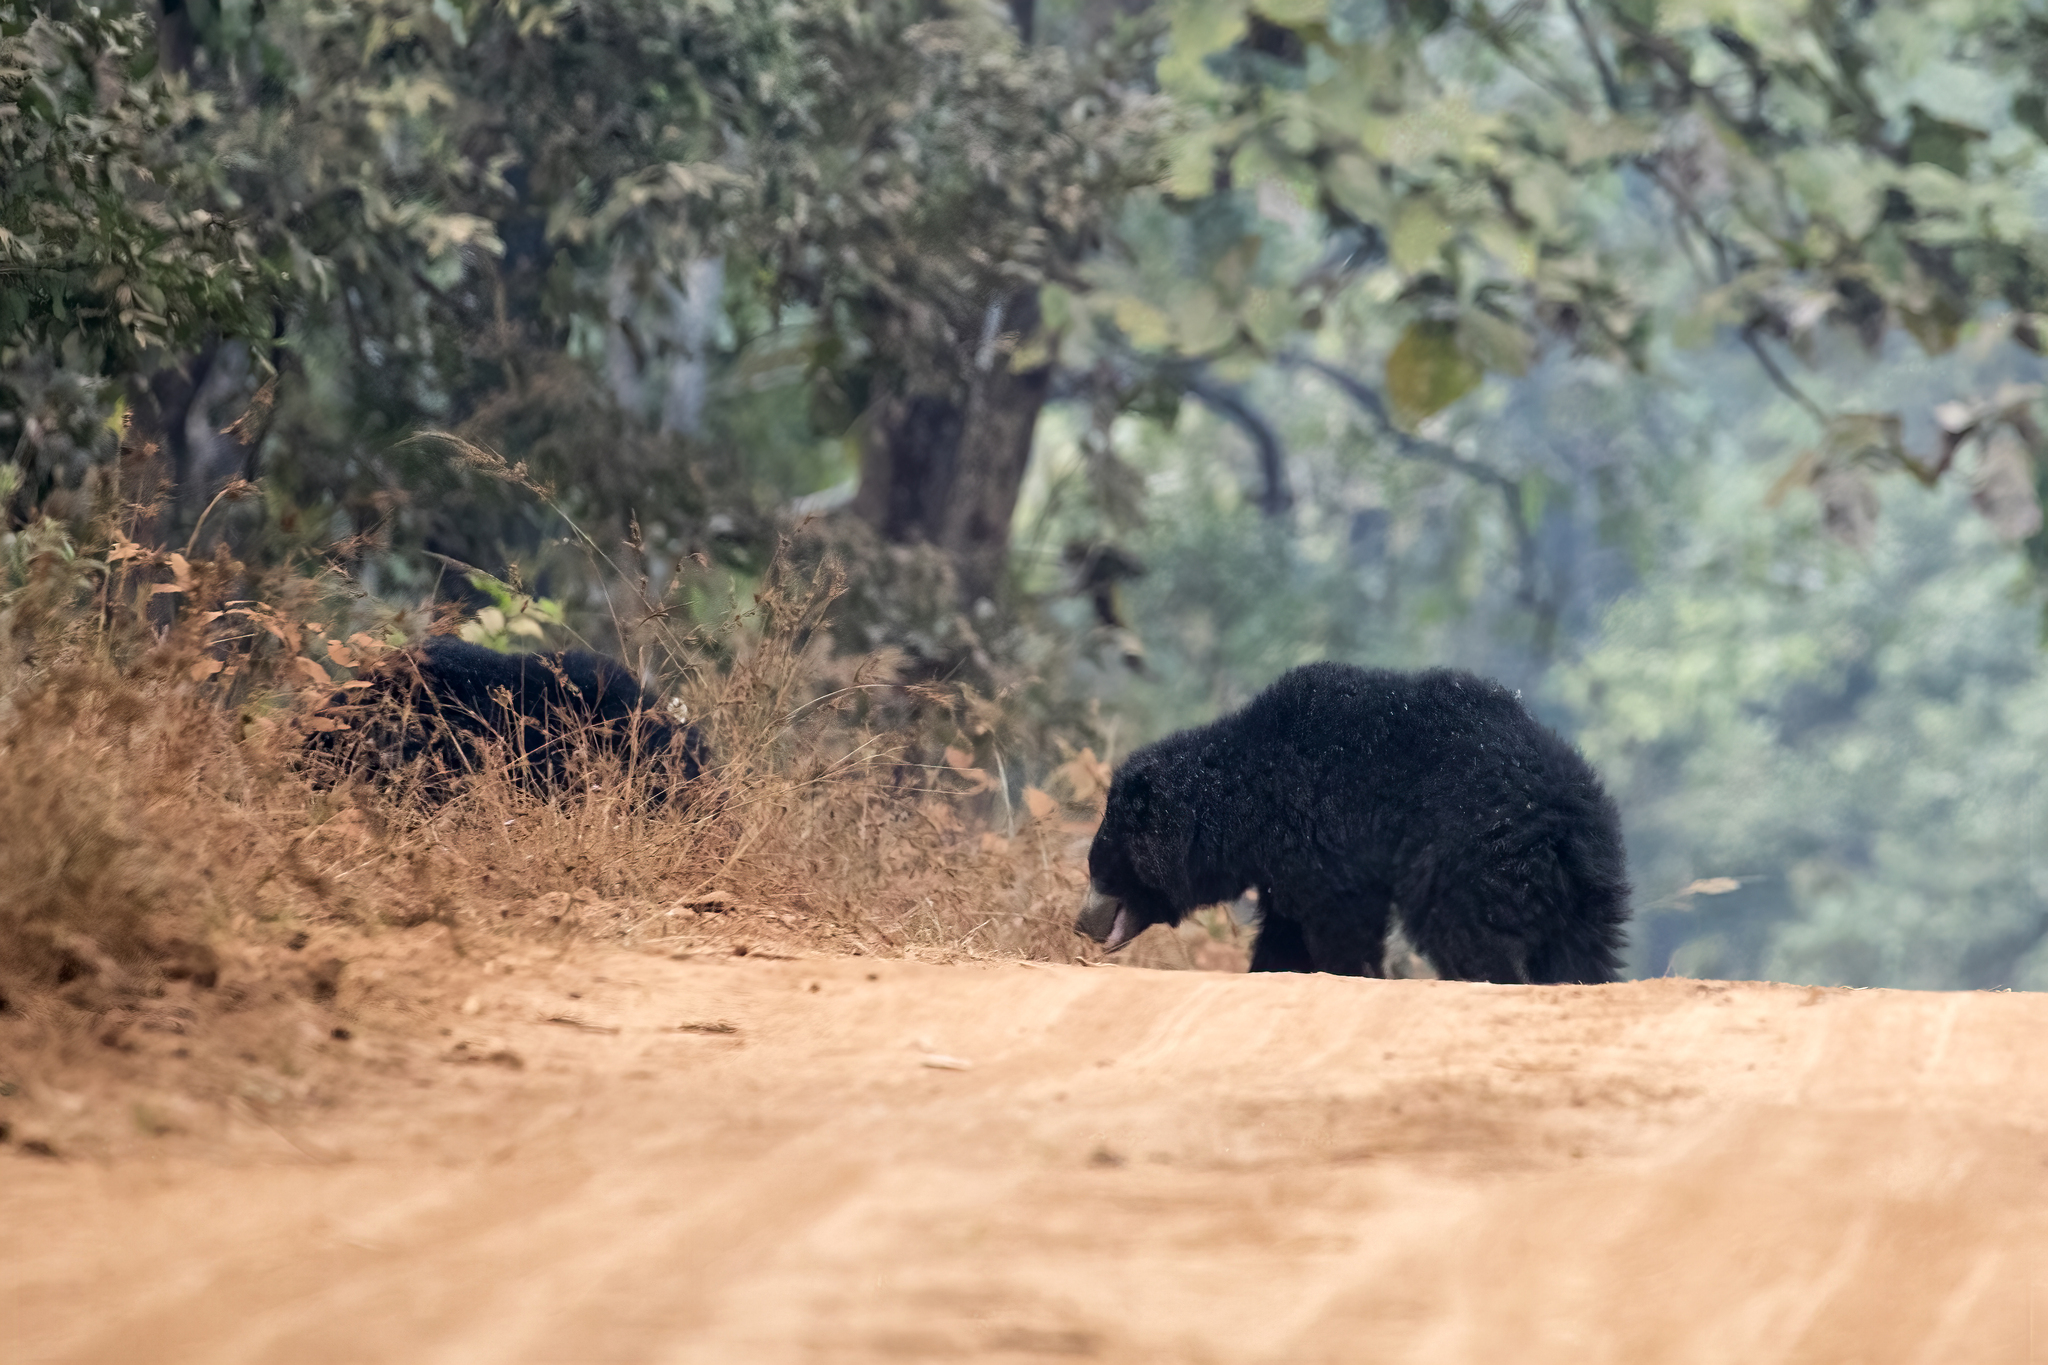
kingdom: Animalia
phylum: Chordata
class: Mammalia
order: Carnivora
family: Ursidae
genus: Melursus
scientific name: Melursus ursinus
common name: Sloth bear
